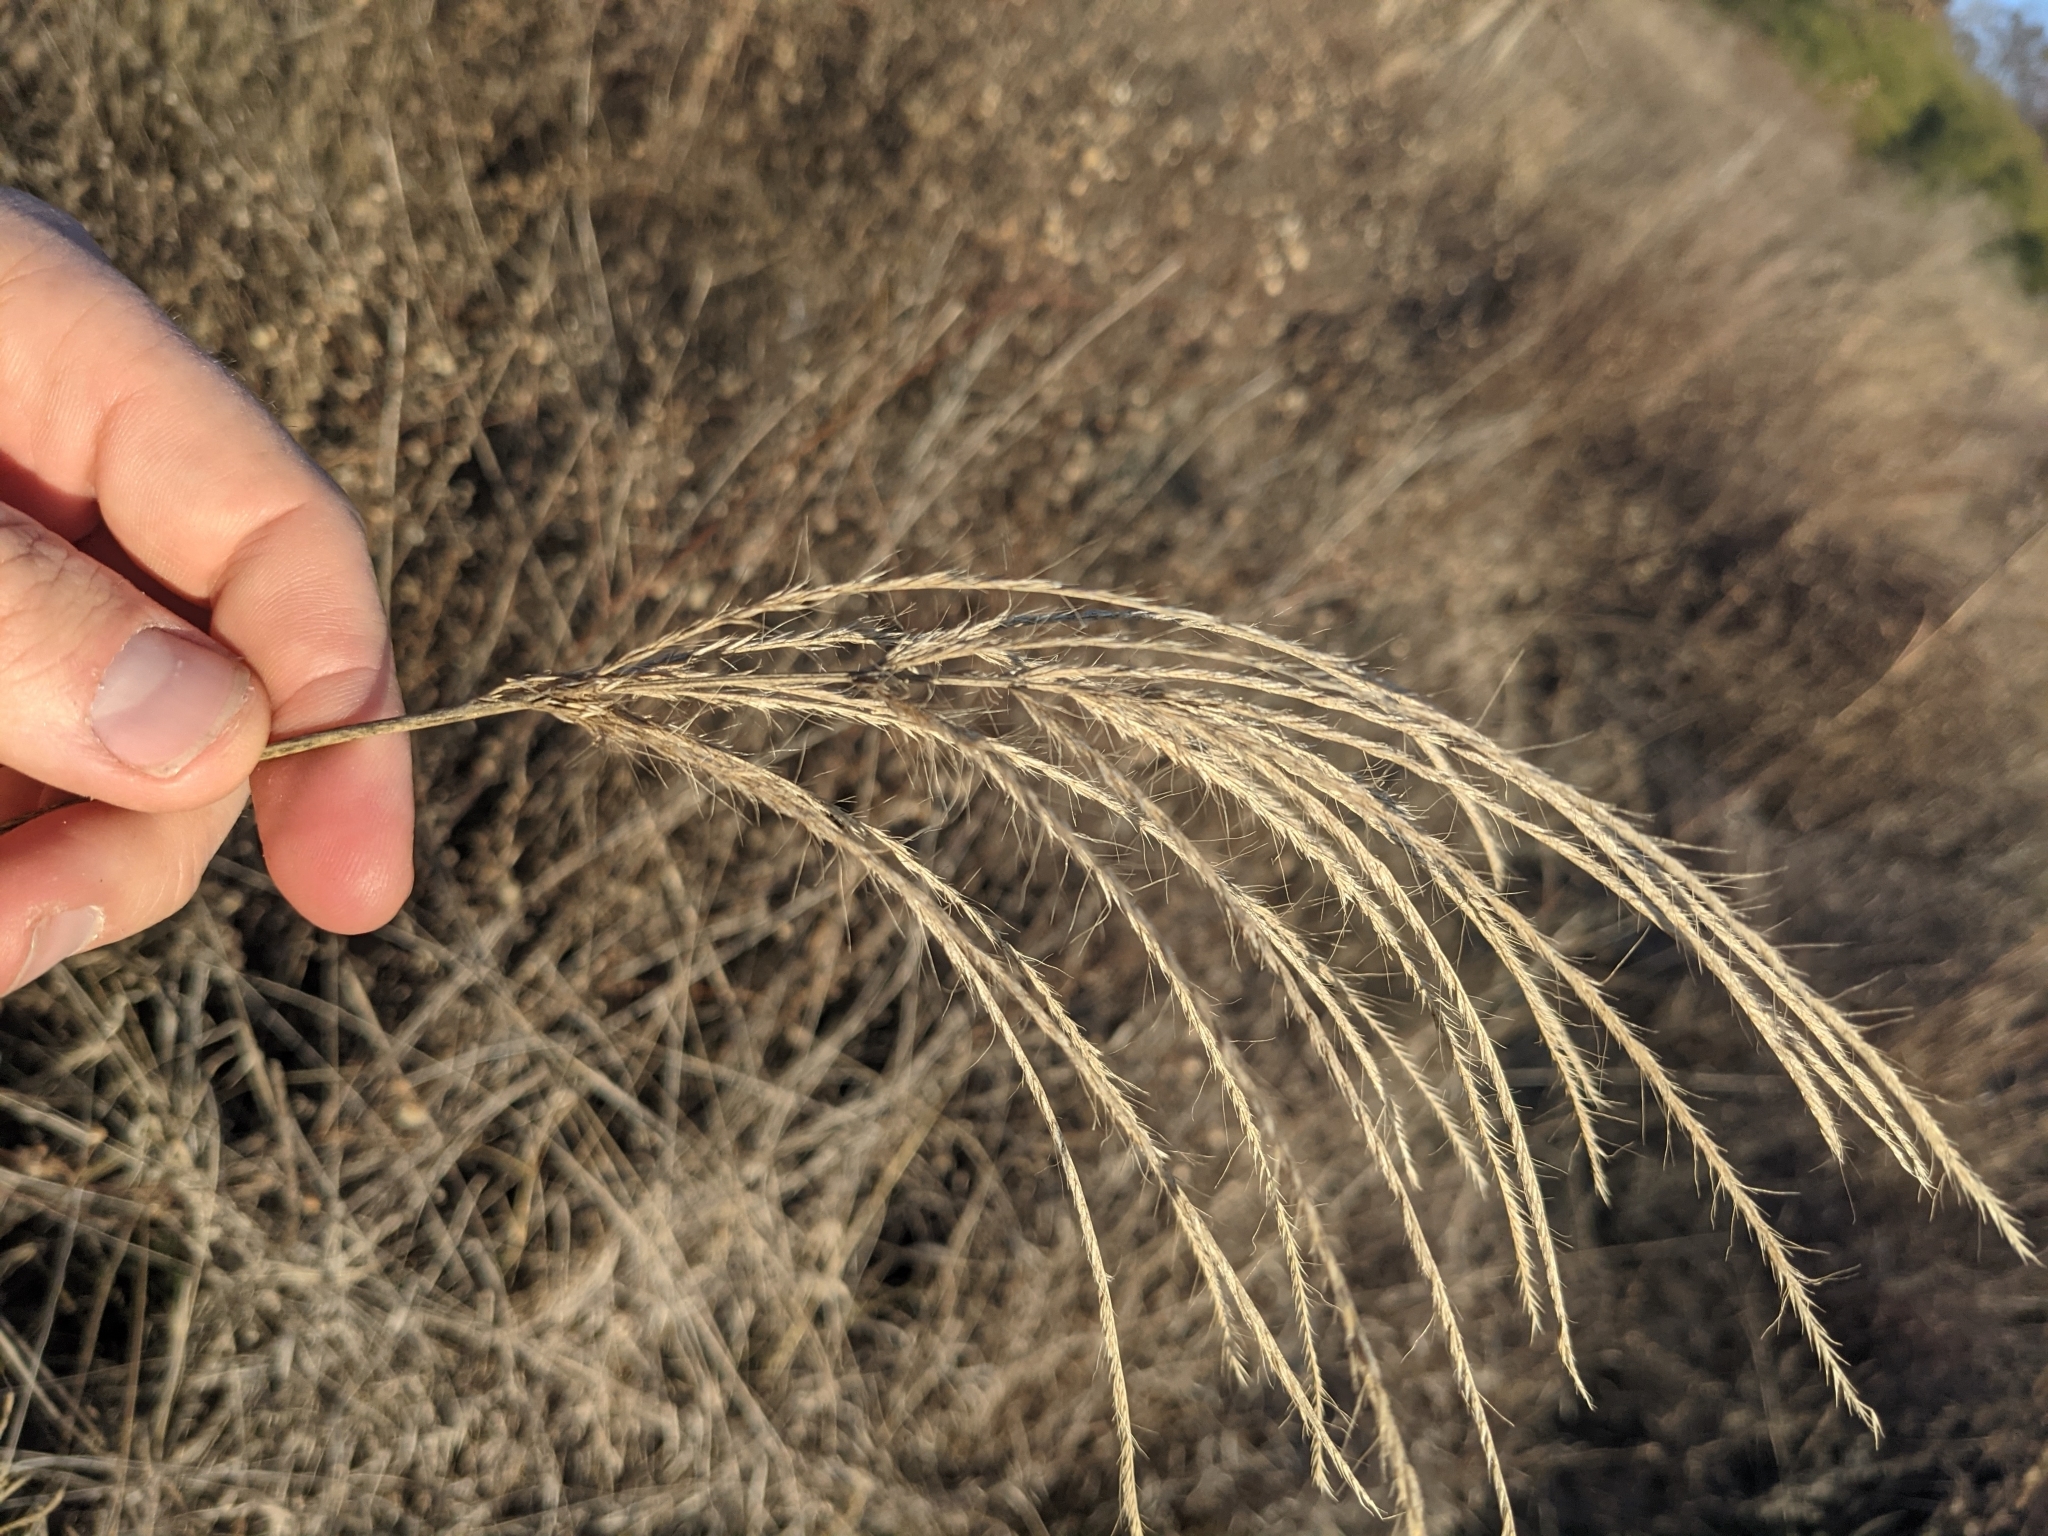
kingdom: Plantae
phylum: Tracheophyta
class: Liliopsida
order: Poales
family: Poaceae
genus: Leptochloa
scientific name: Leptochloa pluriflora
